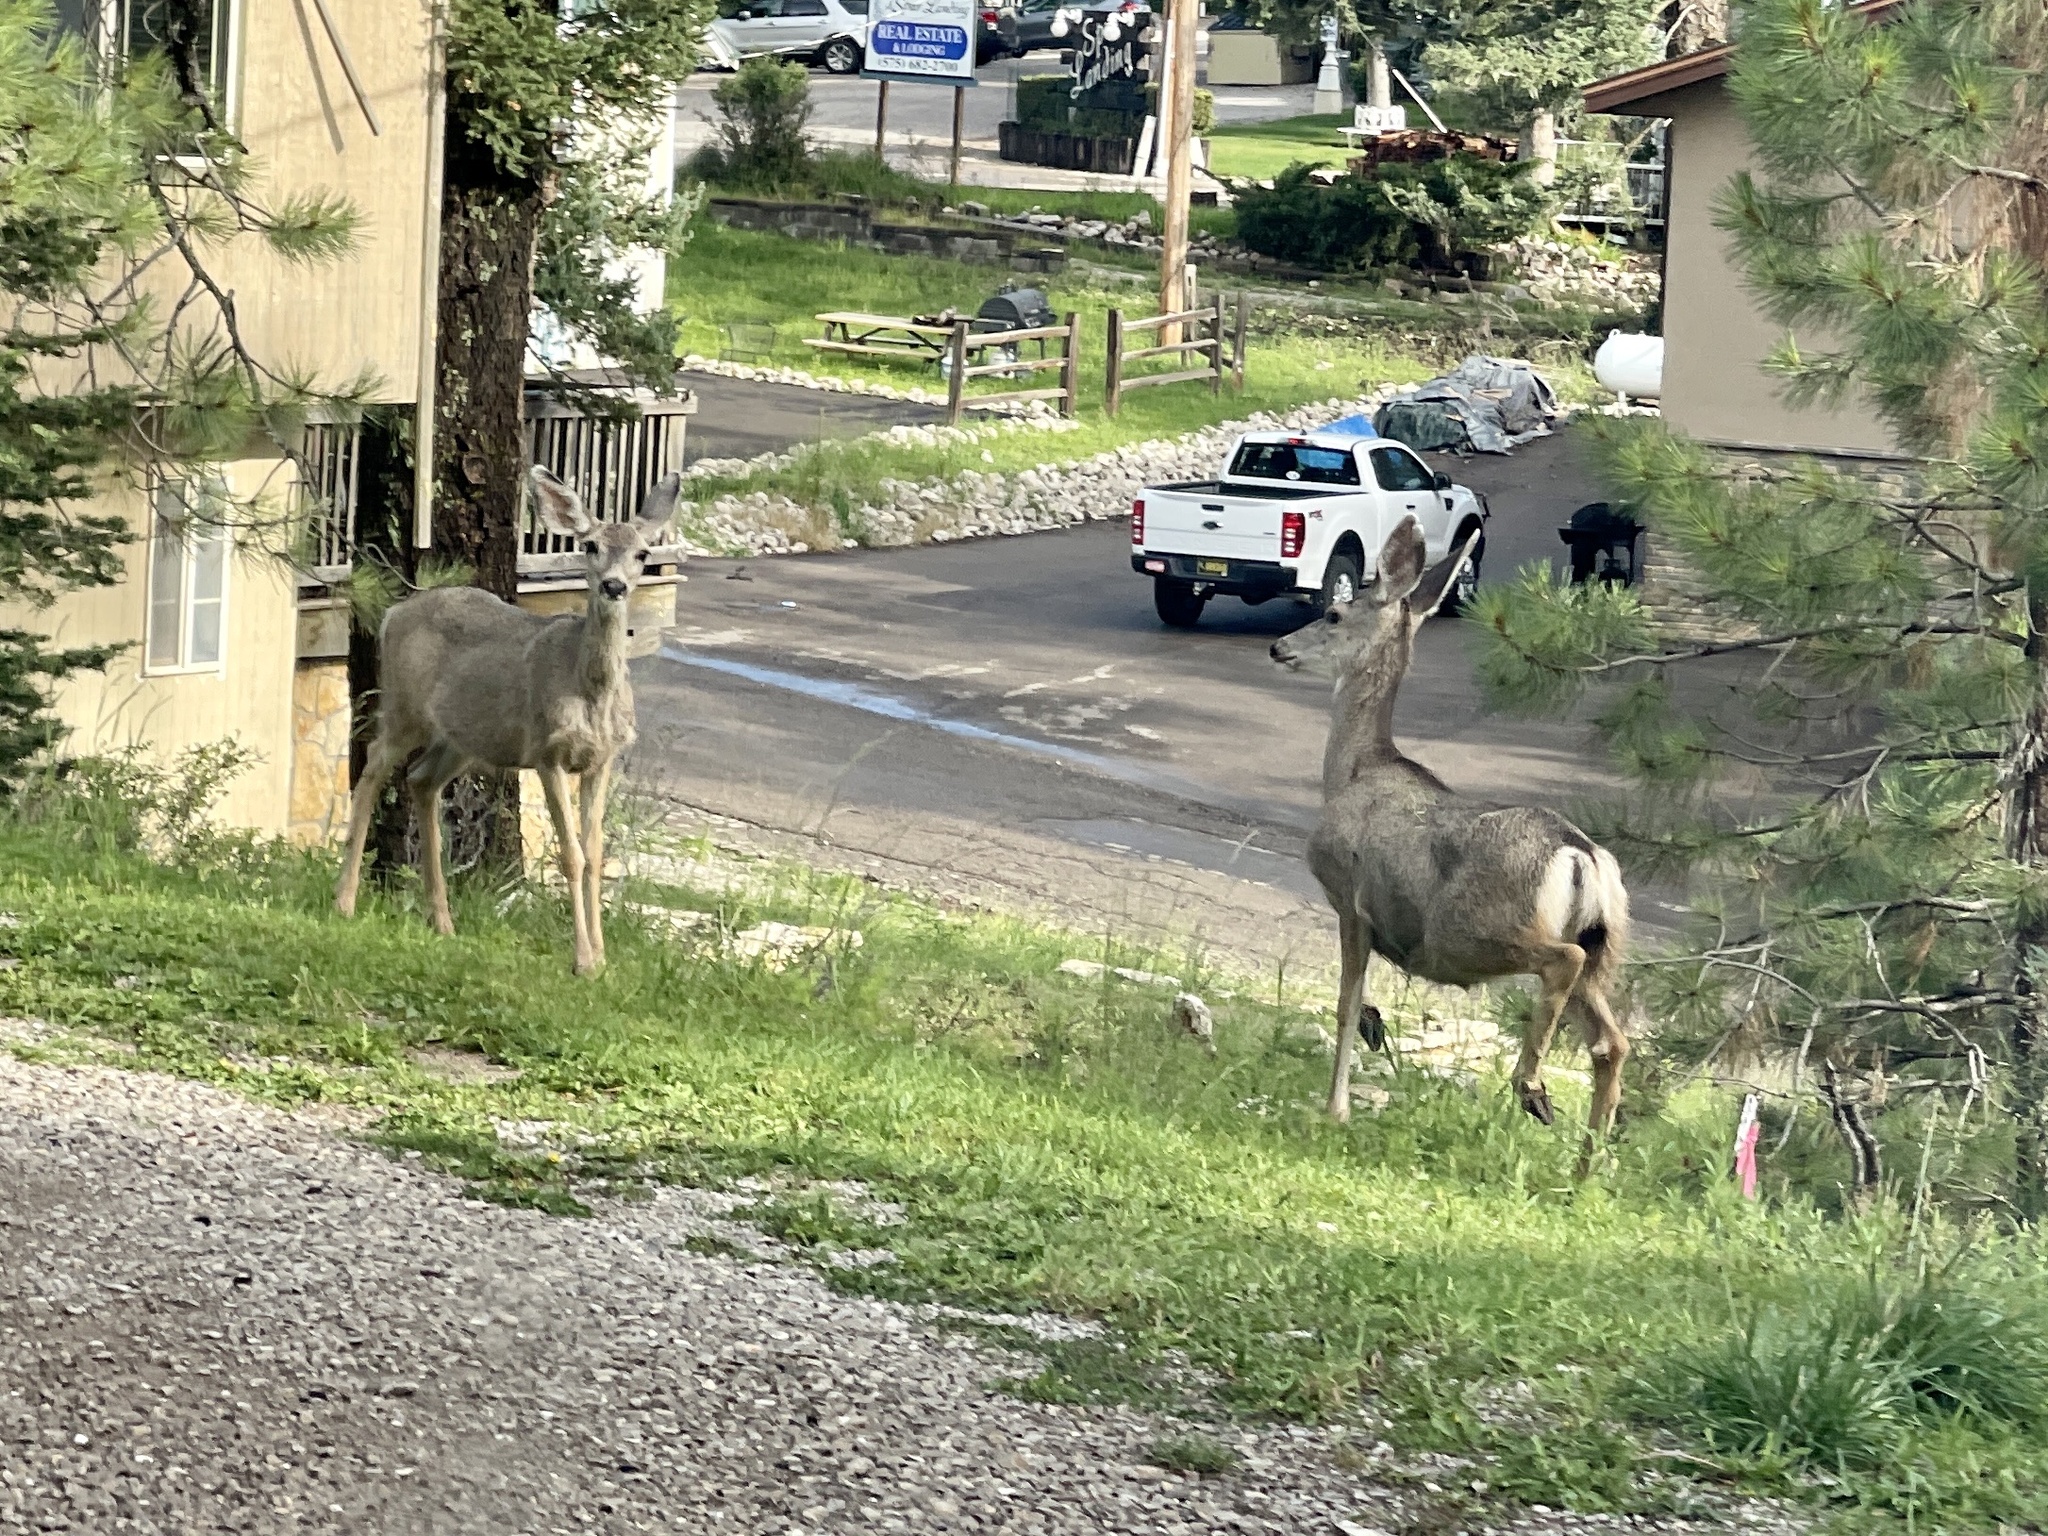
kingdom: Animalia
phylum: Chordata
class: Mammalia
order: Artiodactyla
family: Cervidae
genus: Odocoileus
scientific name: Odocoileus hemionus
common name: Mule deer
